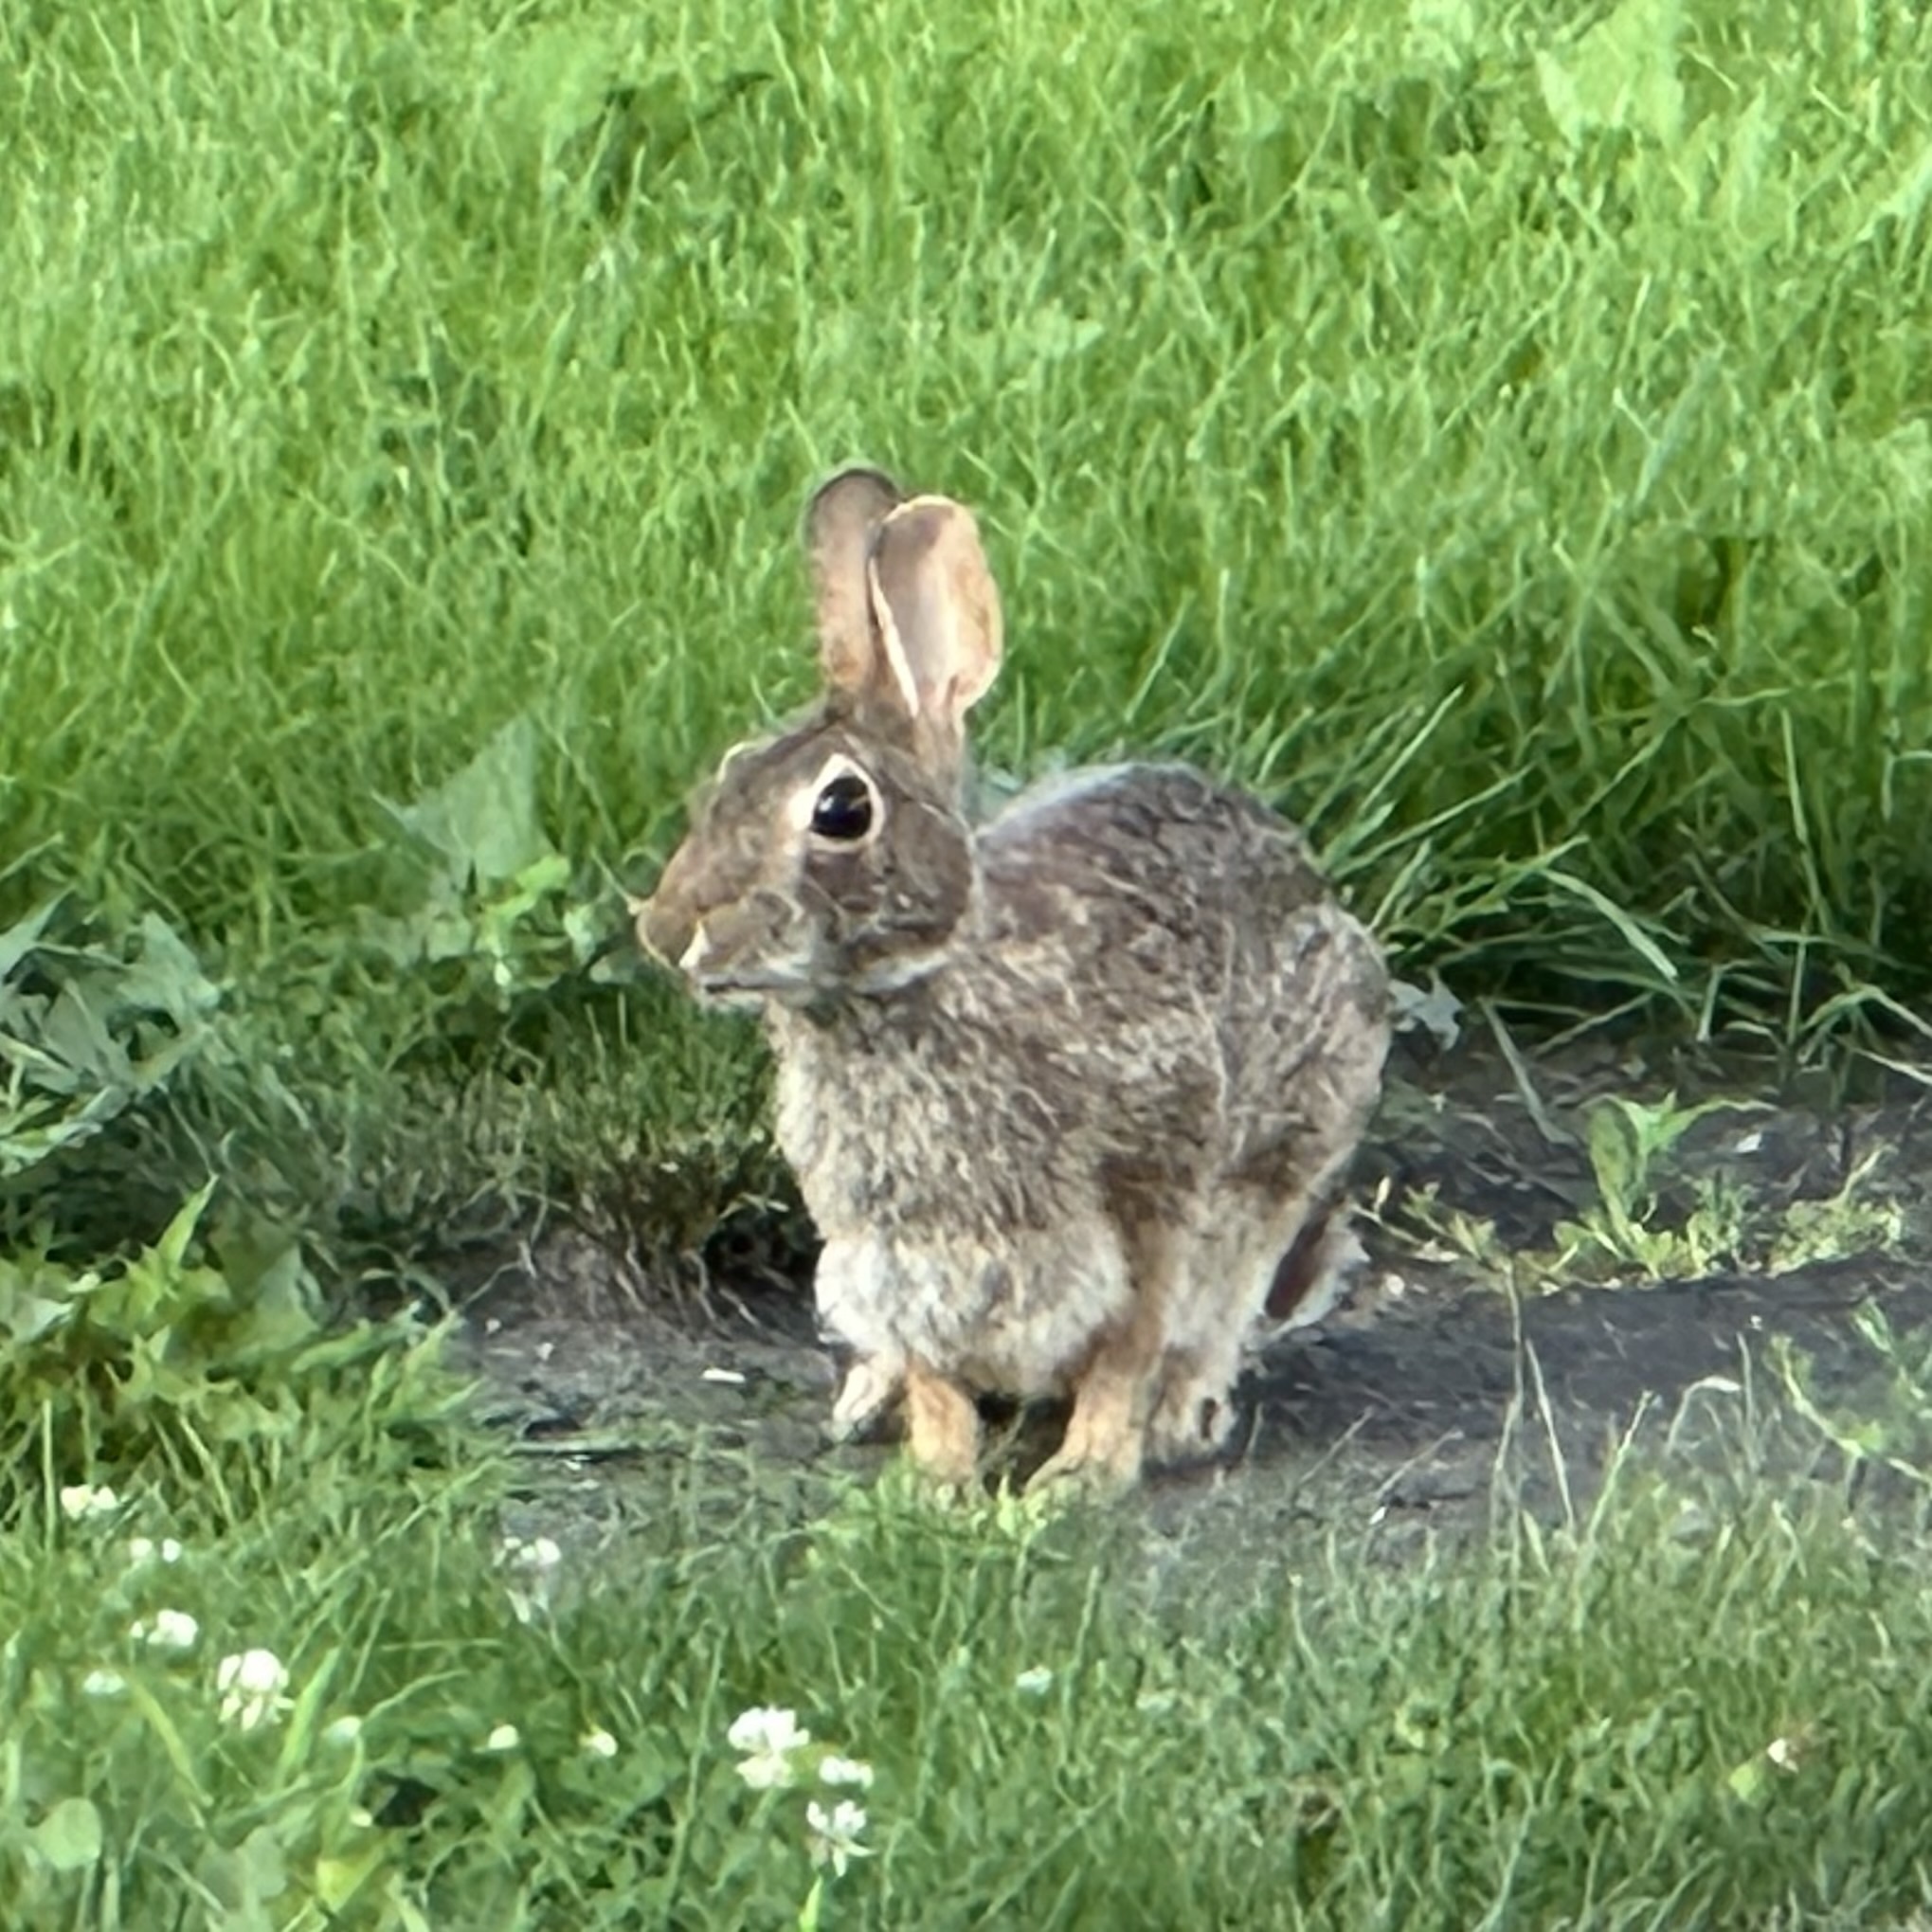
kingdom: Animalia
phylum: Chordata
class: Mammalia
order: Lagomorpha
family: Leporidae
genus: Sylvilagus
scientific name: Sylvilagus floridanus
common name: Eastern cottontail
